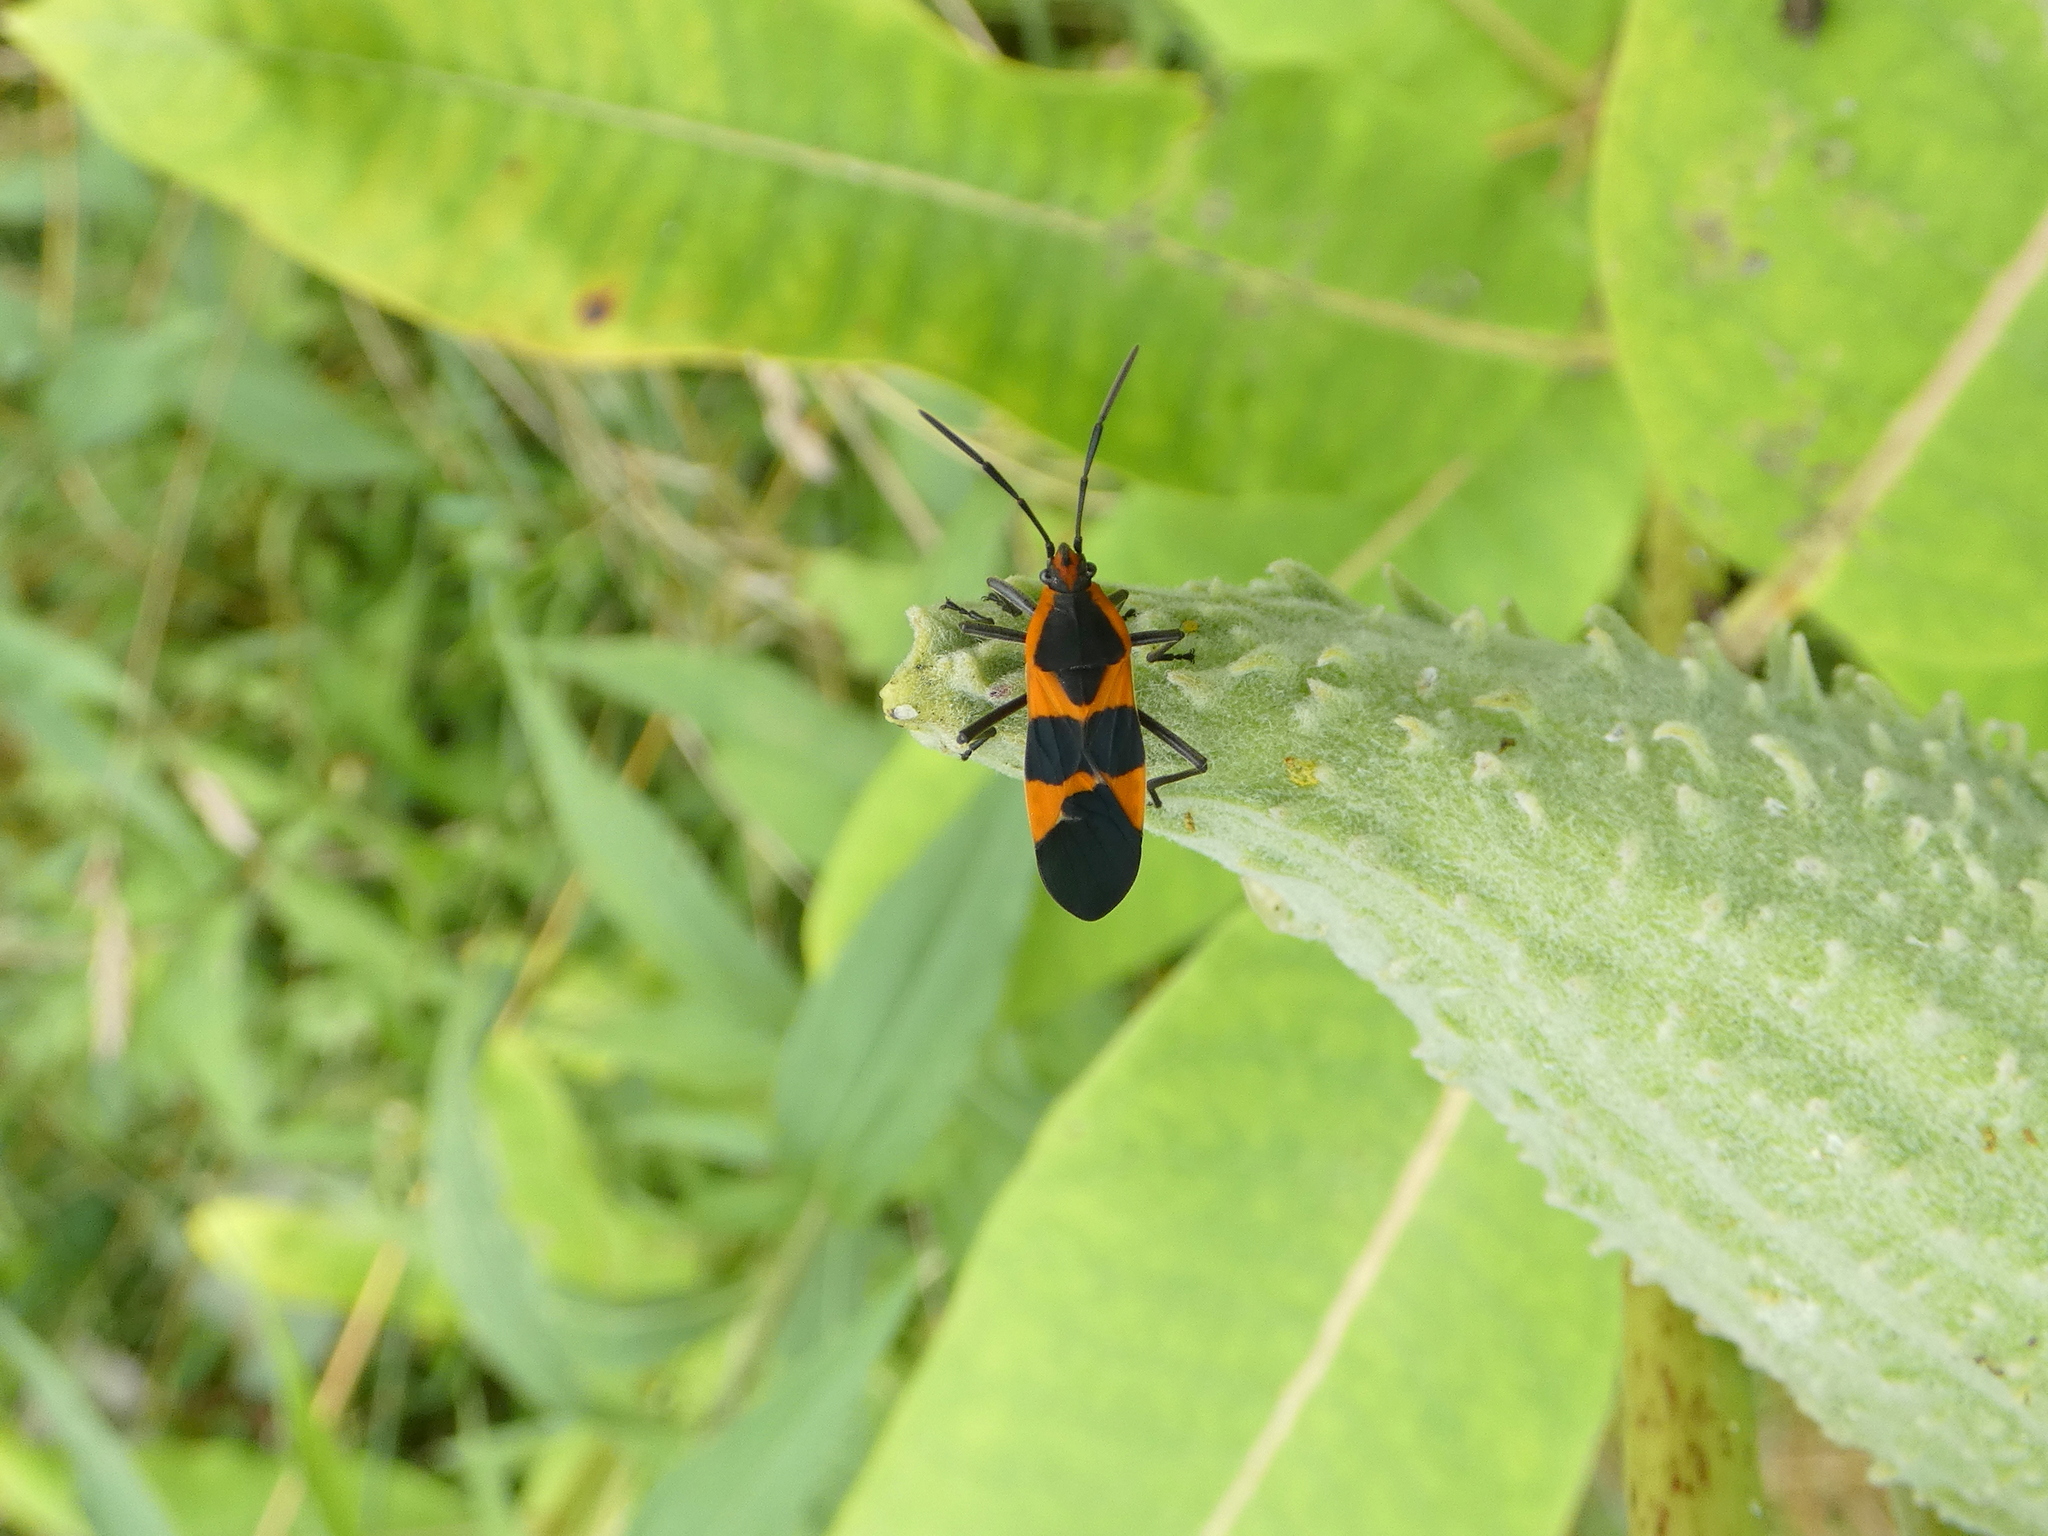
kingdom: Animalia
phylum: Arthropoda
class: Insecta
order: Hemiptera
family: Lygaeidae
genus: Oncopeltus
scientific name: Oncopeltus fasciatus
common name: Large milkweed bug
